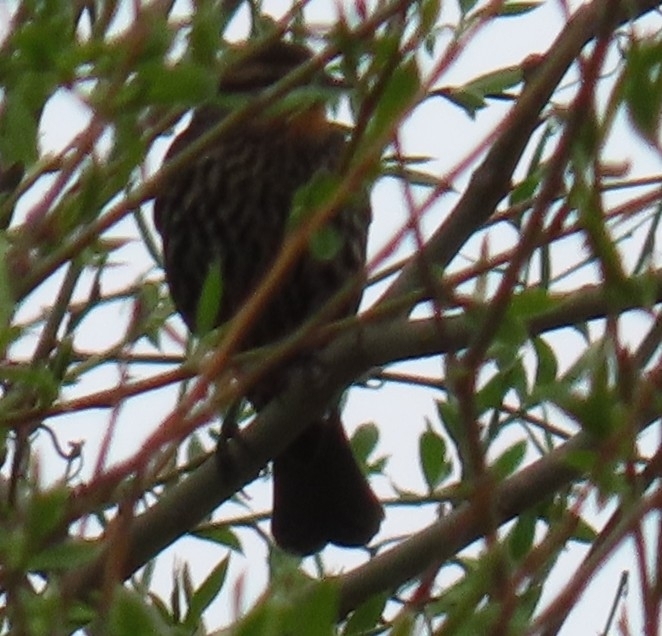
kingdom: Animalia
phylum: Chordata
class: Aves
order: Passeriformes
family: Icteridae
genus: Agelaius
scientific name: Agelaius phoeniceus
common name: Red-winged blackbird
